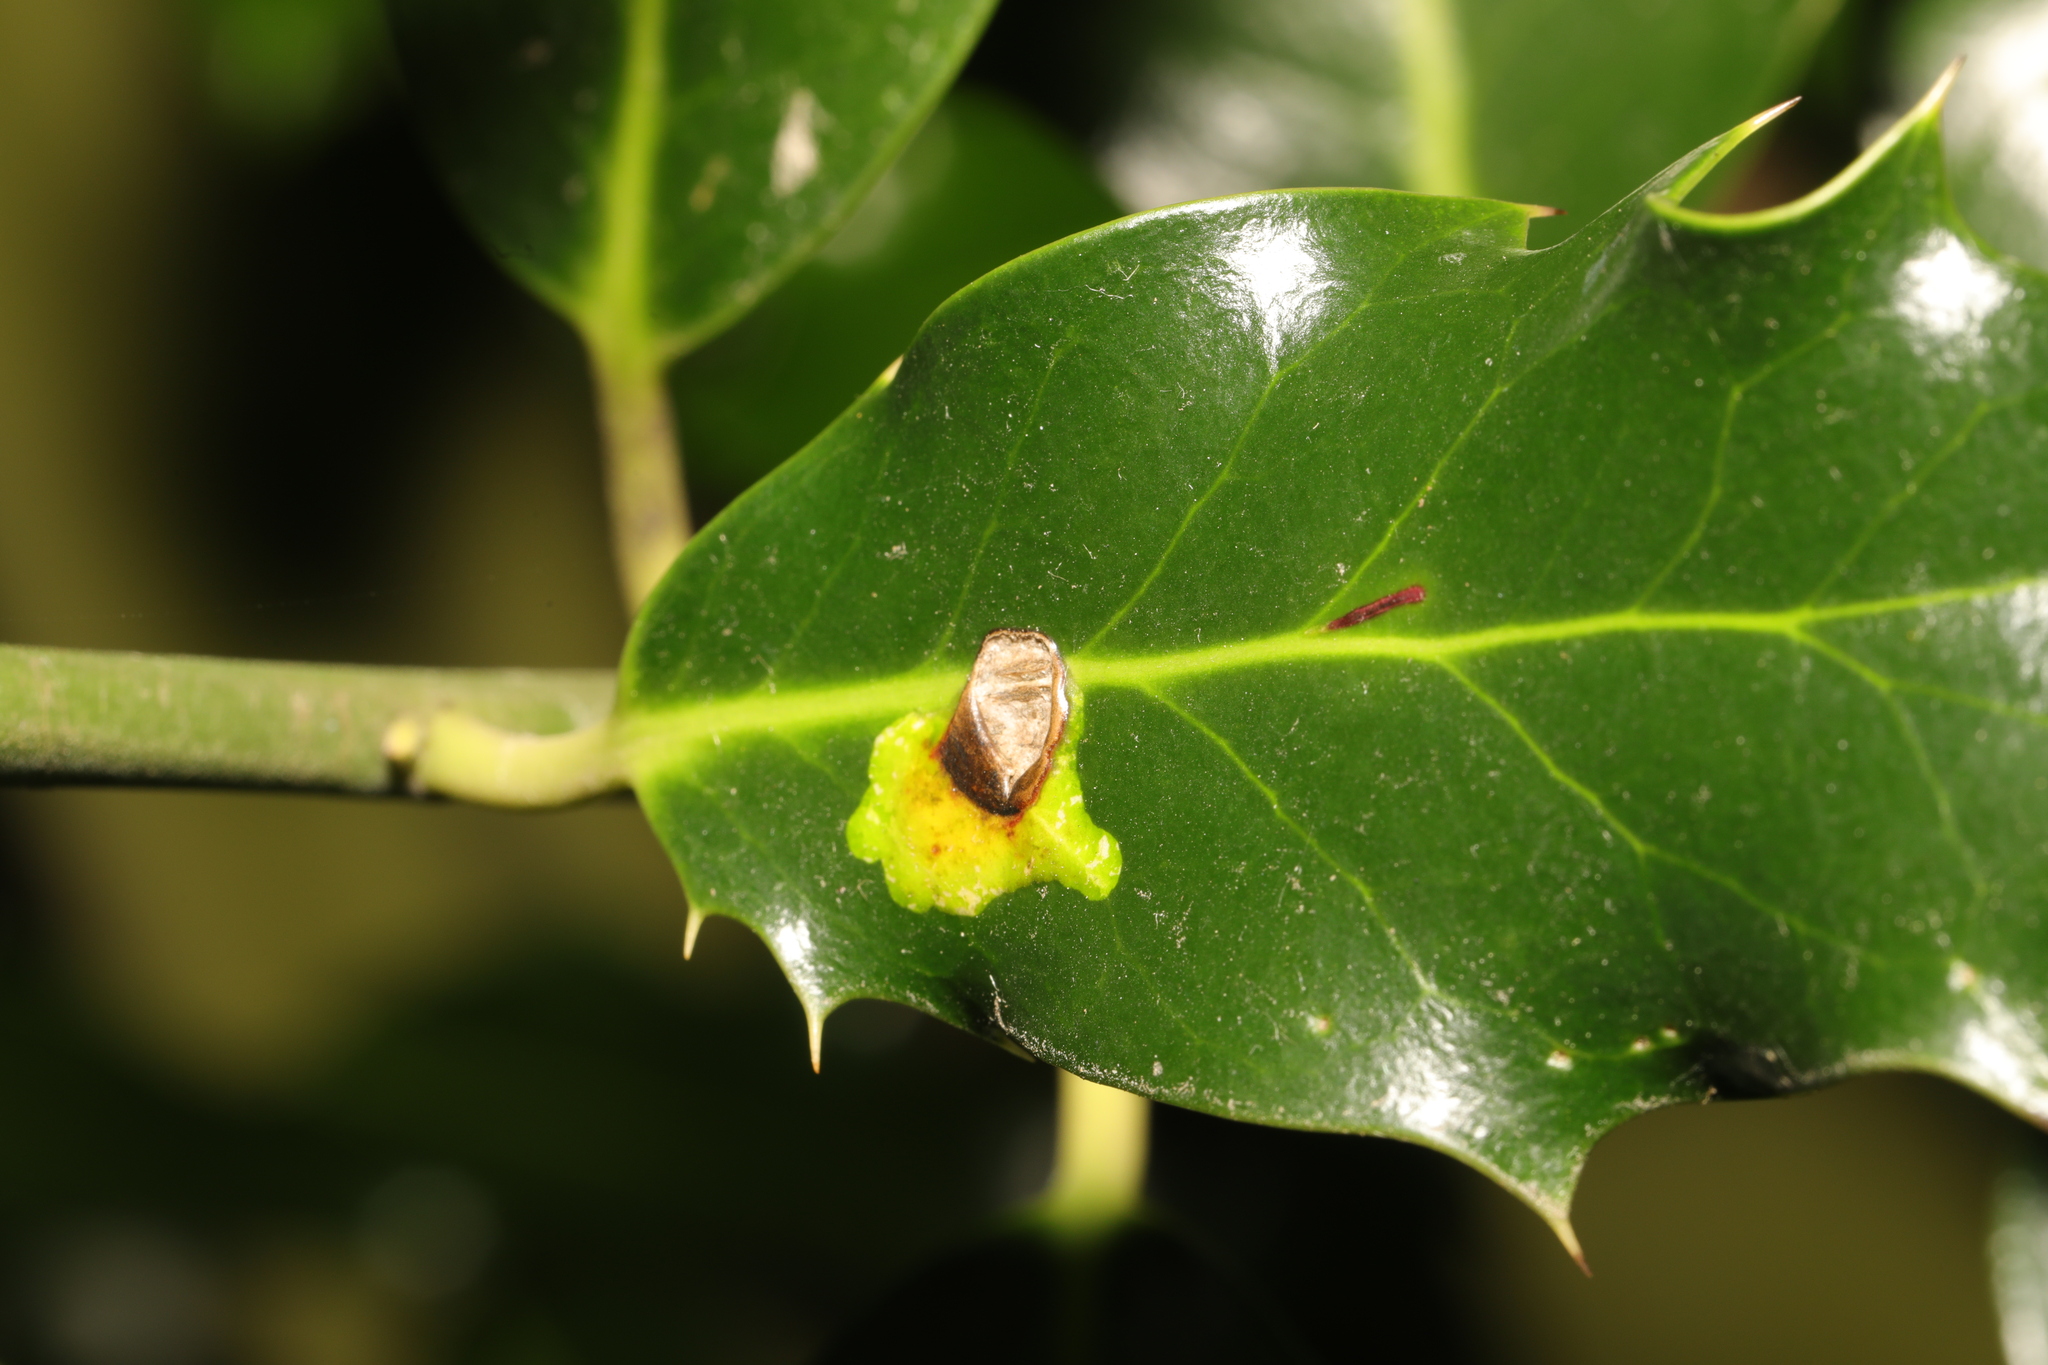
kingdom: Animalia
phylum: Arthropoda
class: Insecta
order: Diptera
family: Agromyzidae
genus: Phytomyza
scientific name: Phytomyza ilicis
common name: Holly leafminer
